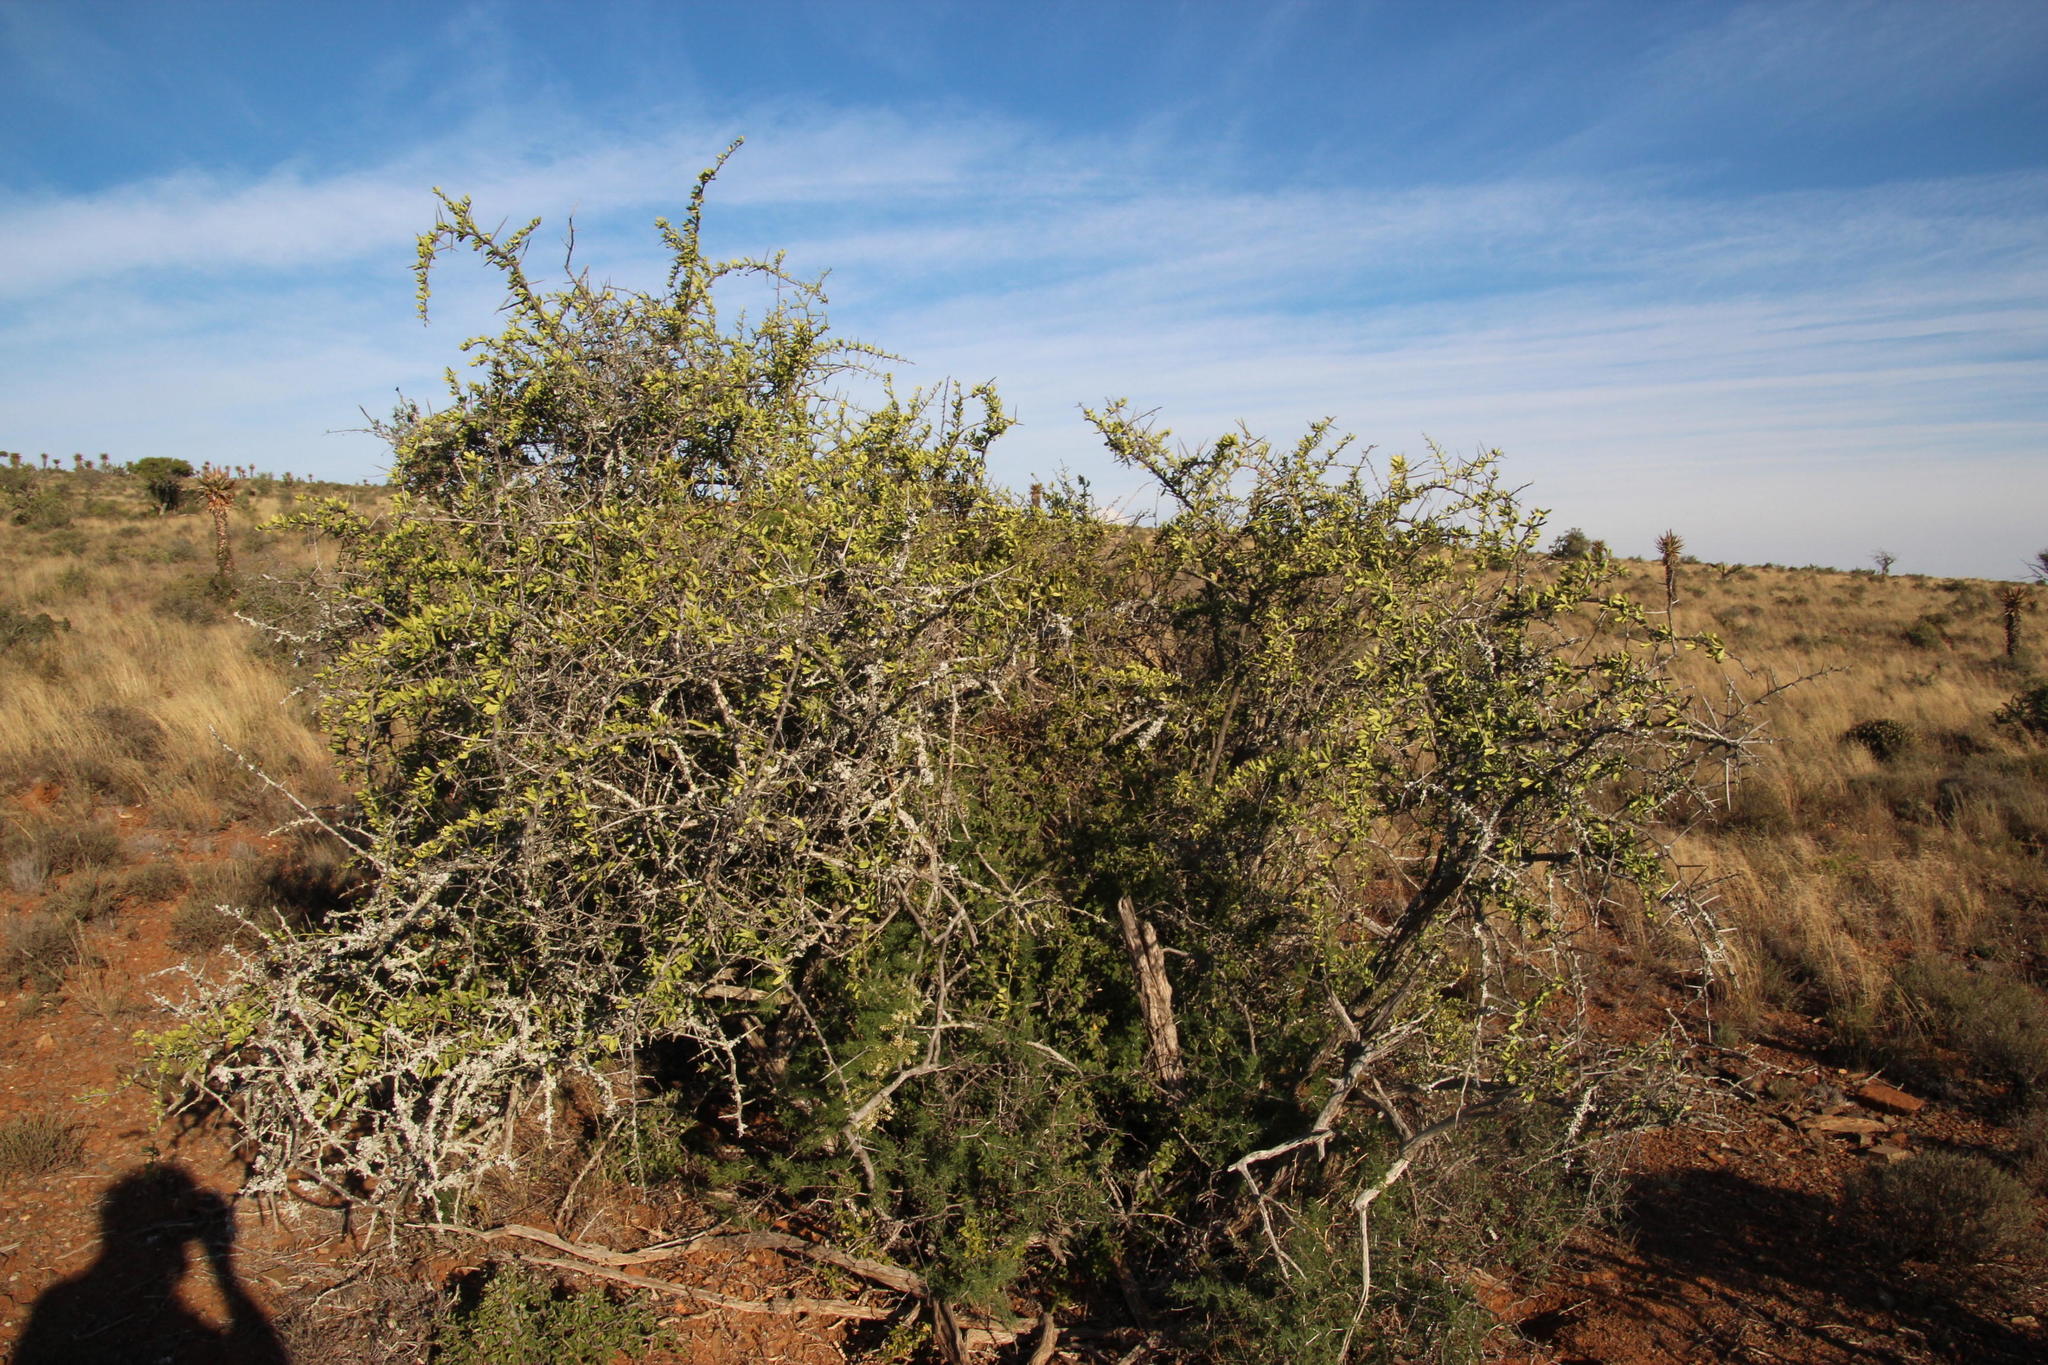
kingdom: Plantae
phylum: Tracheophyta
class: Magnoliopsida
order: Celastrales
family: Celastraceae
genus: Gymnosporia
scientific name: Gymnosporia buxifolia
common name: Common spike-thorn
